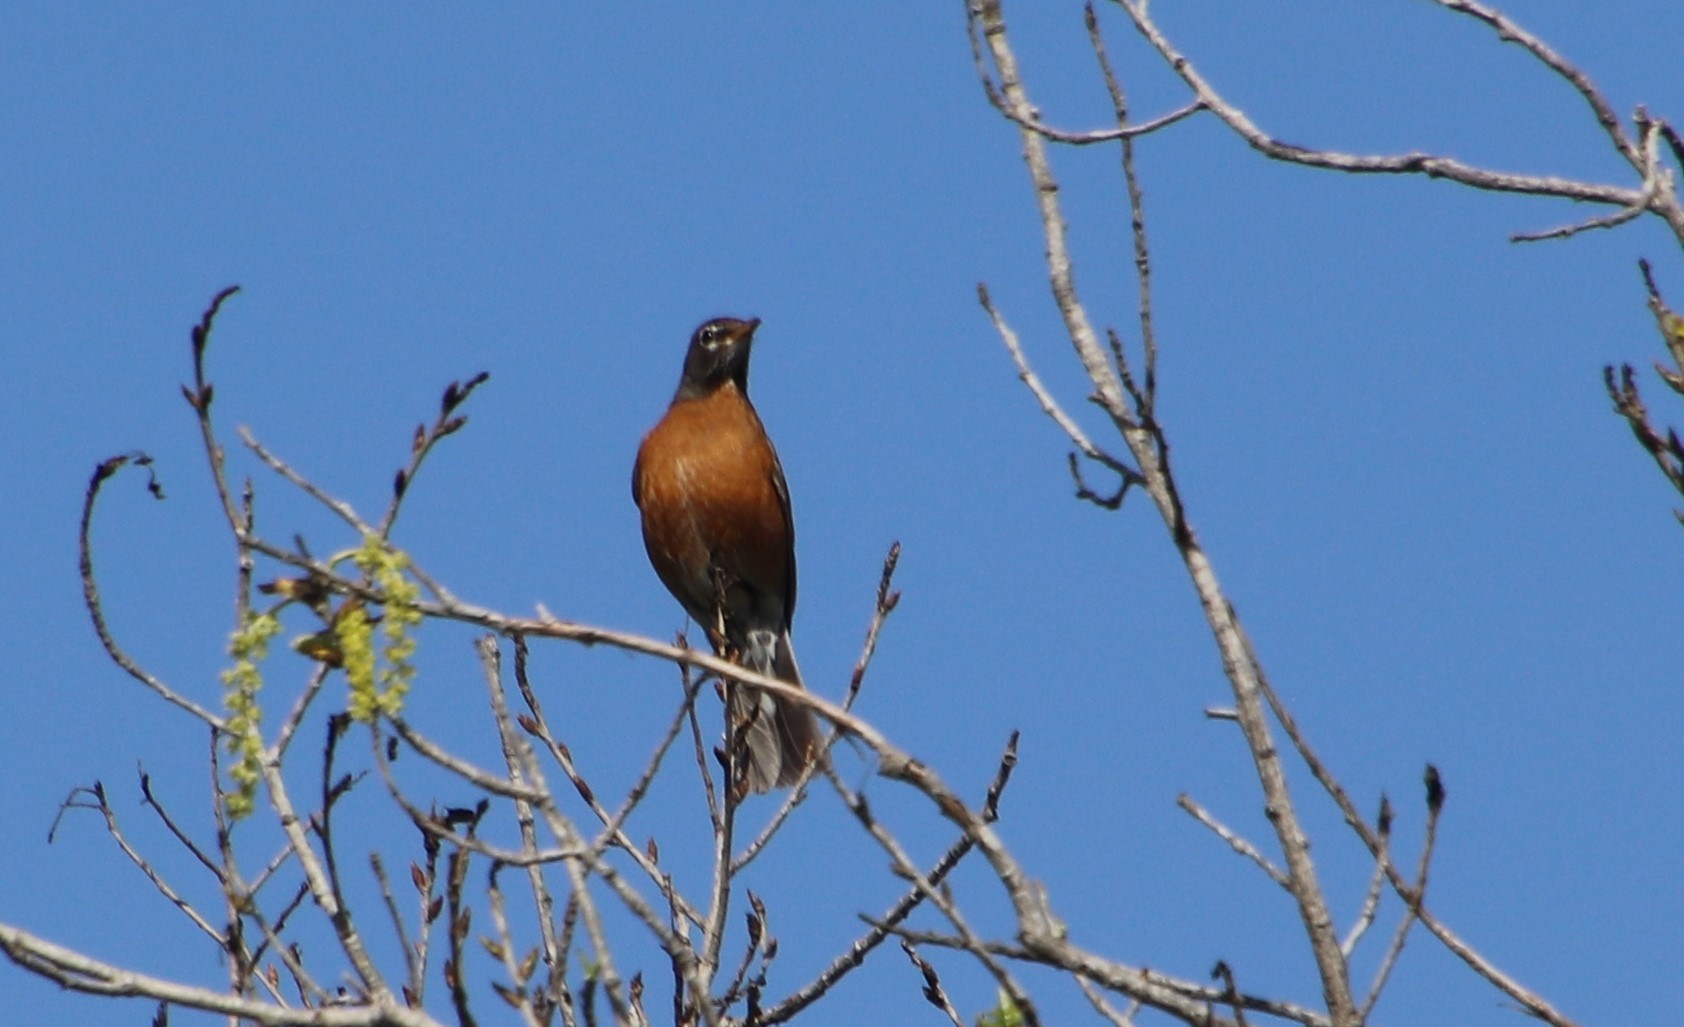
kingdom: Animalia
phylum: Chordata
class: Aves
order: Passeriformes
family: Turdidae
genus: Turdus
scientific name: Turdus migratorius
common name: American robin
